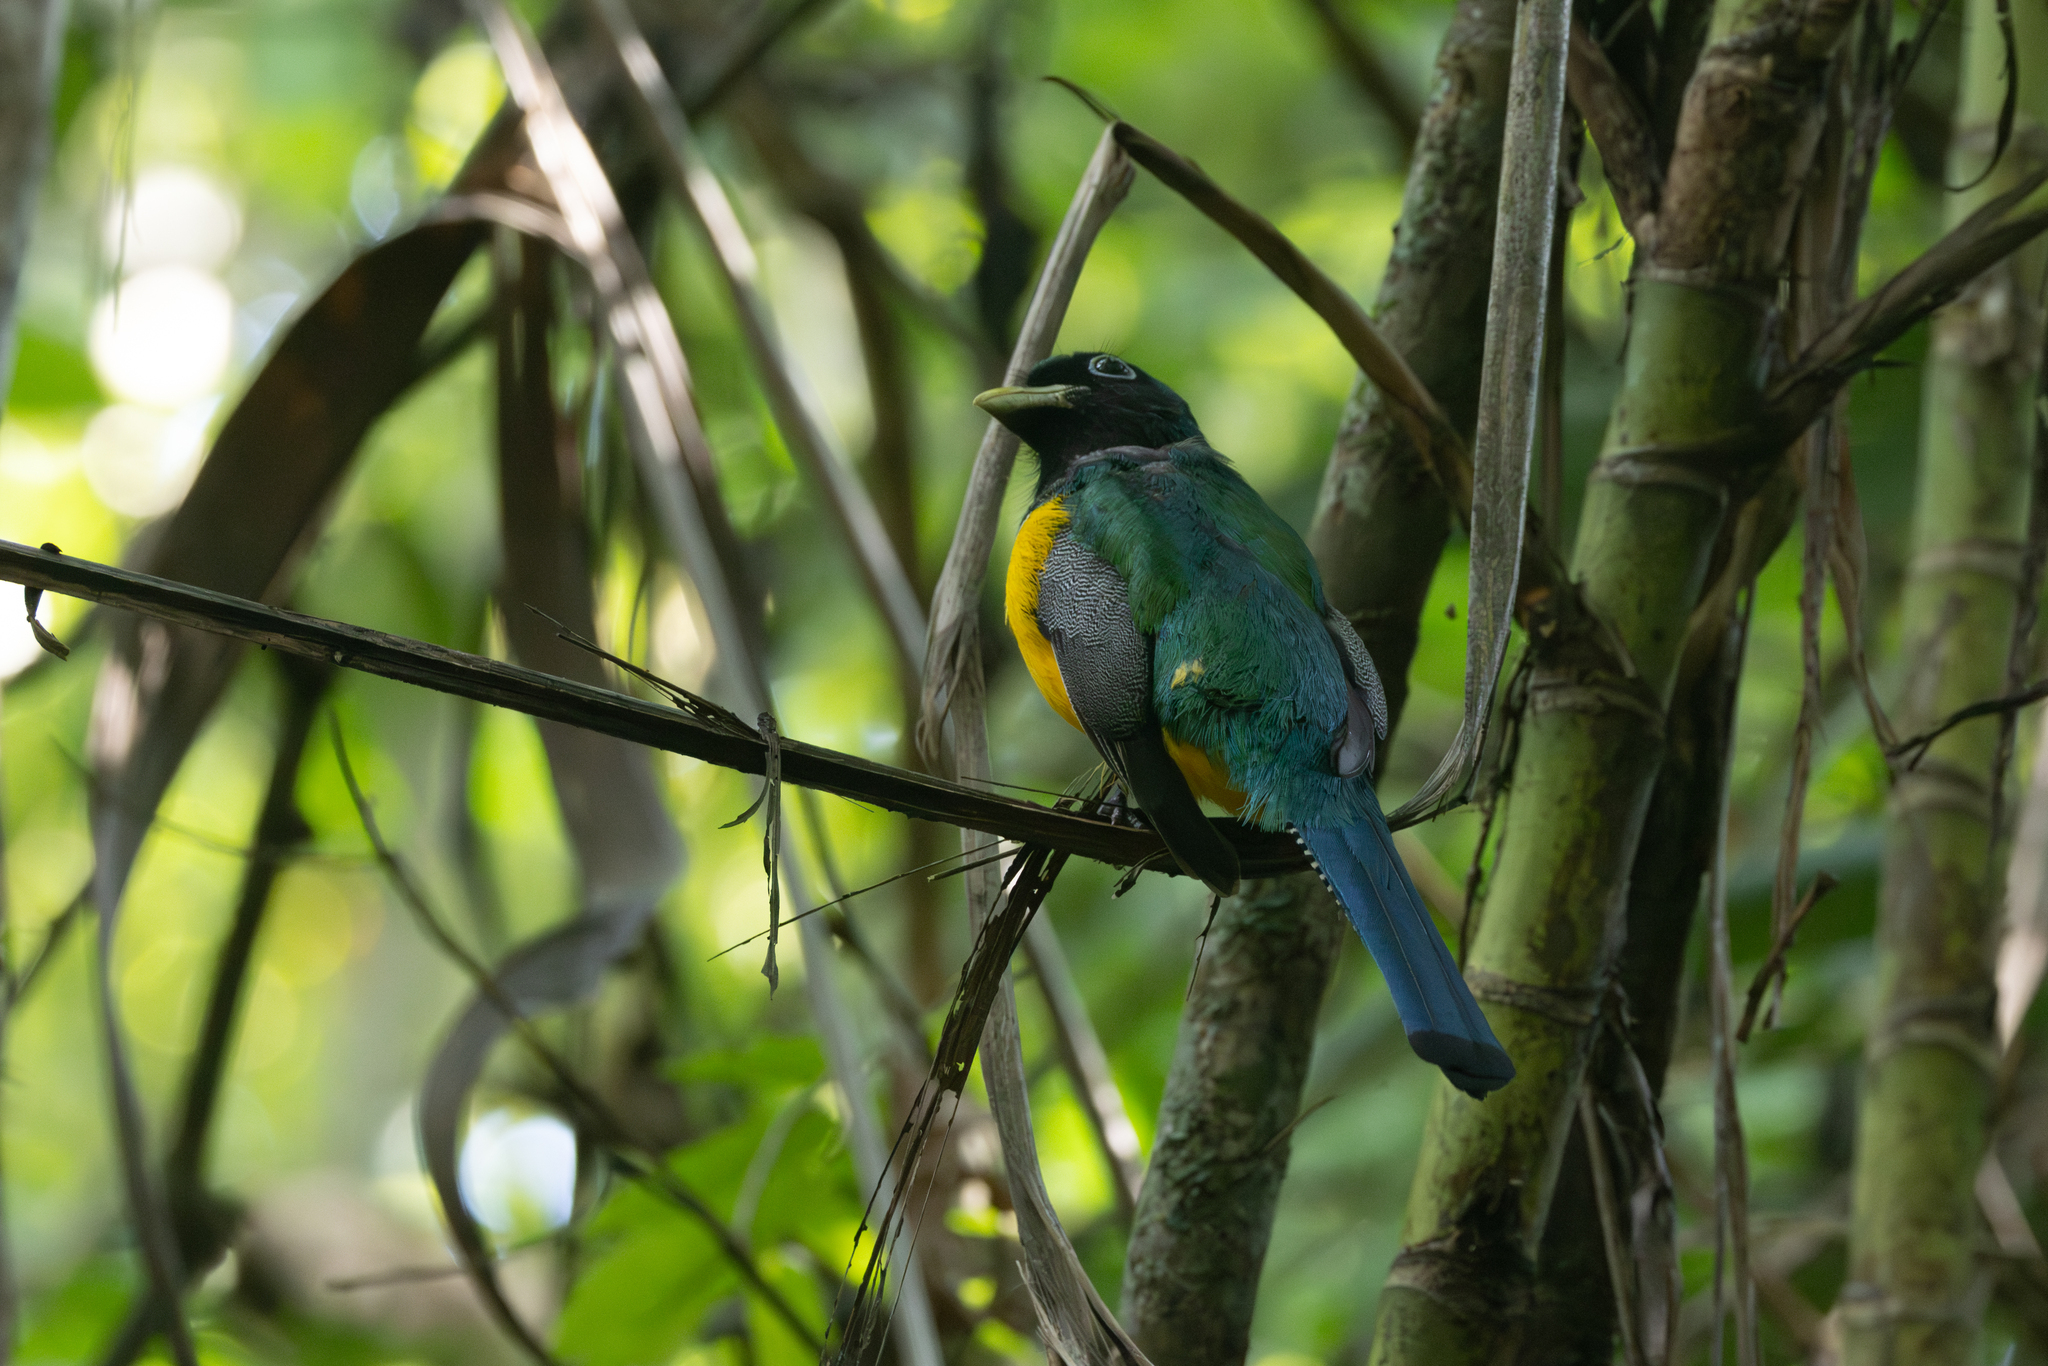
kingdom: Animalia
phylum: Chordata
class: Aves
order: Trogoniformes
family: Trogonidae
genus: Trogon
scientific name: Trogon rufus
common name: Black-throated trogon
